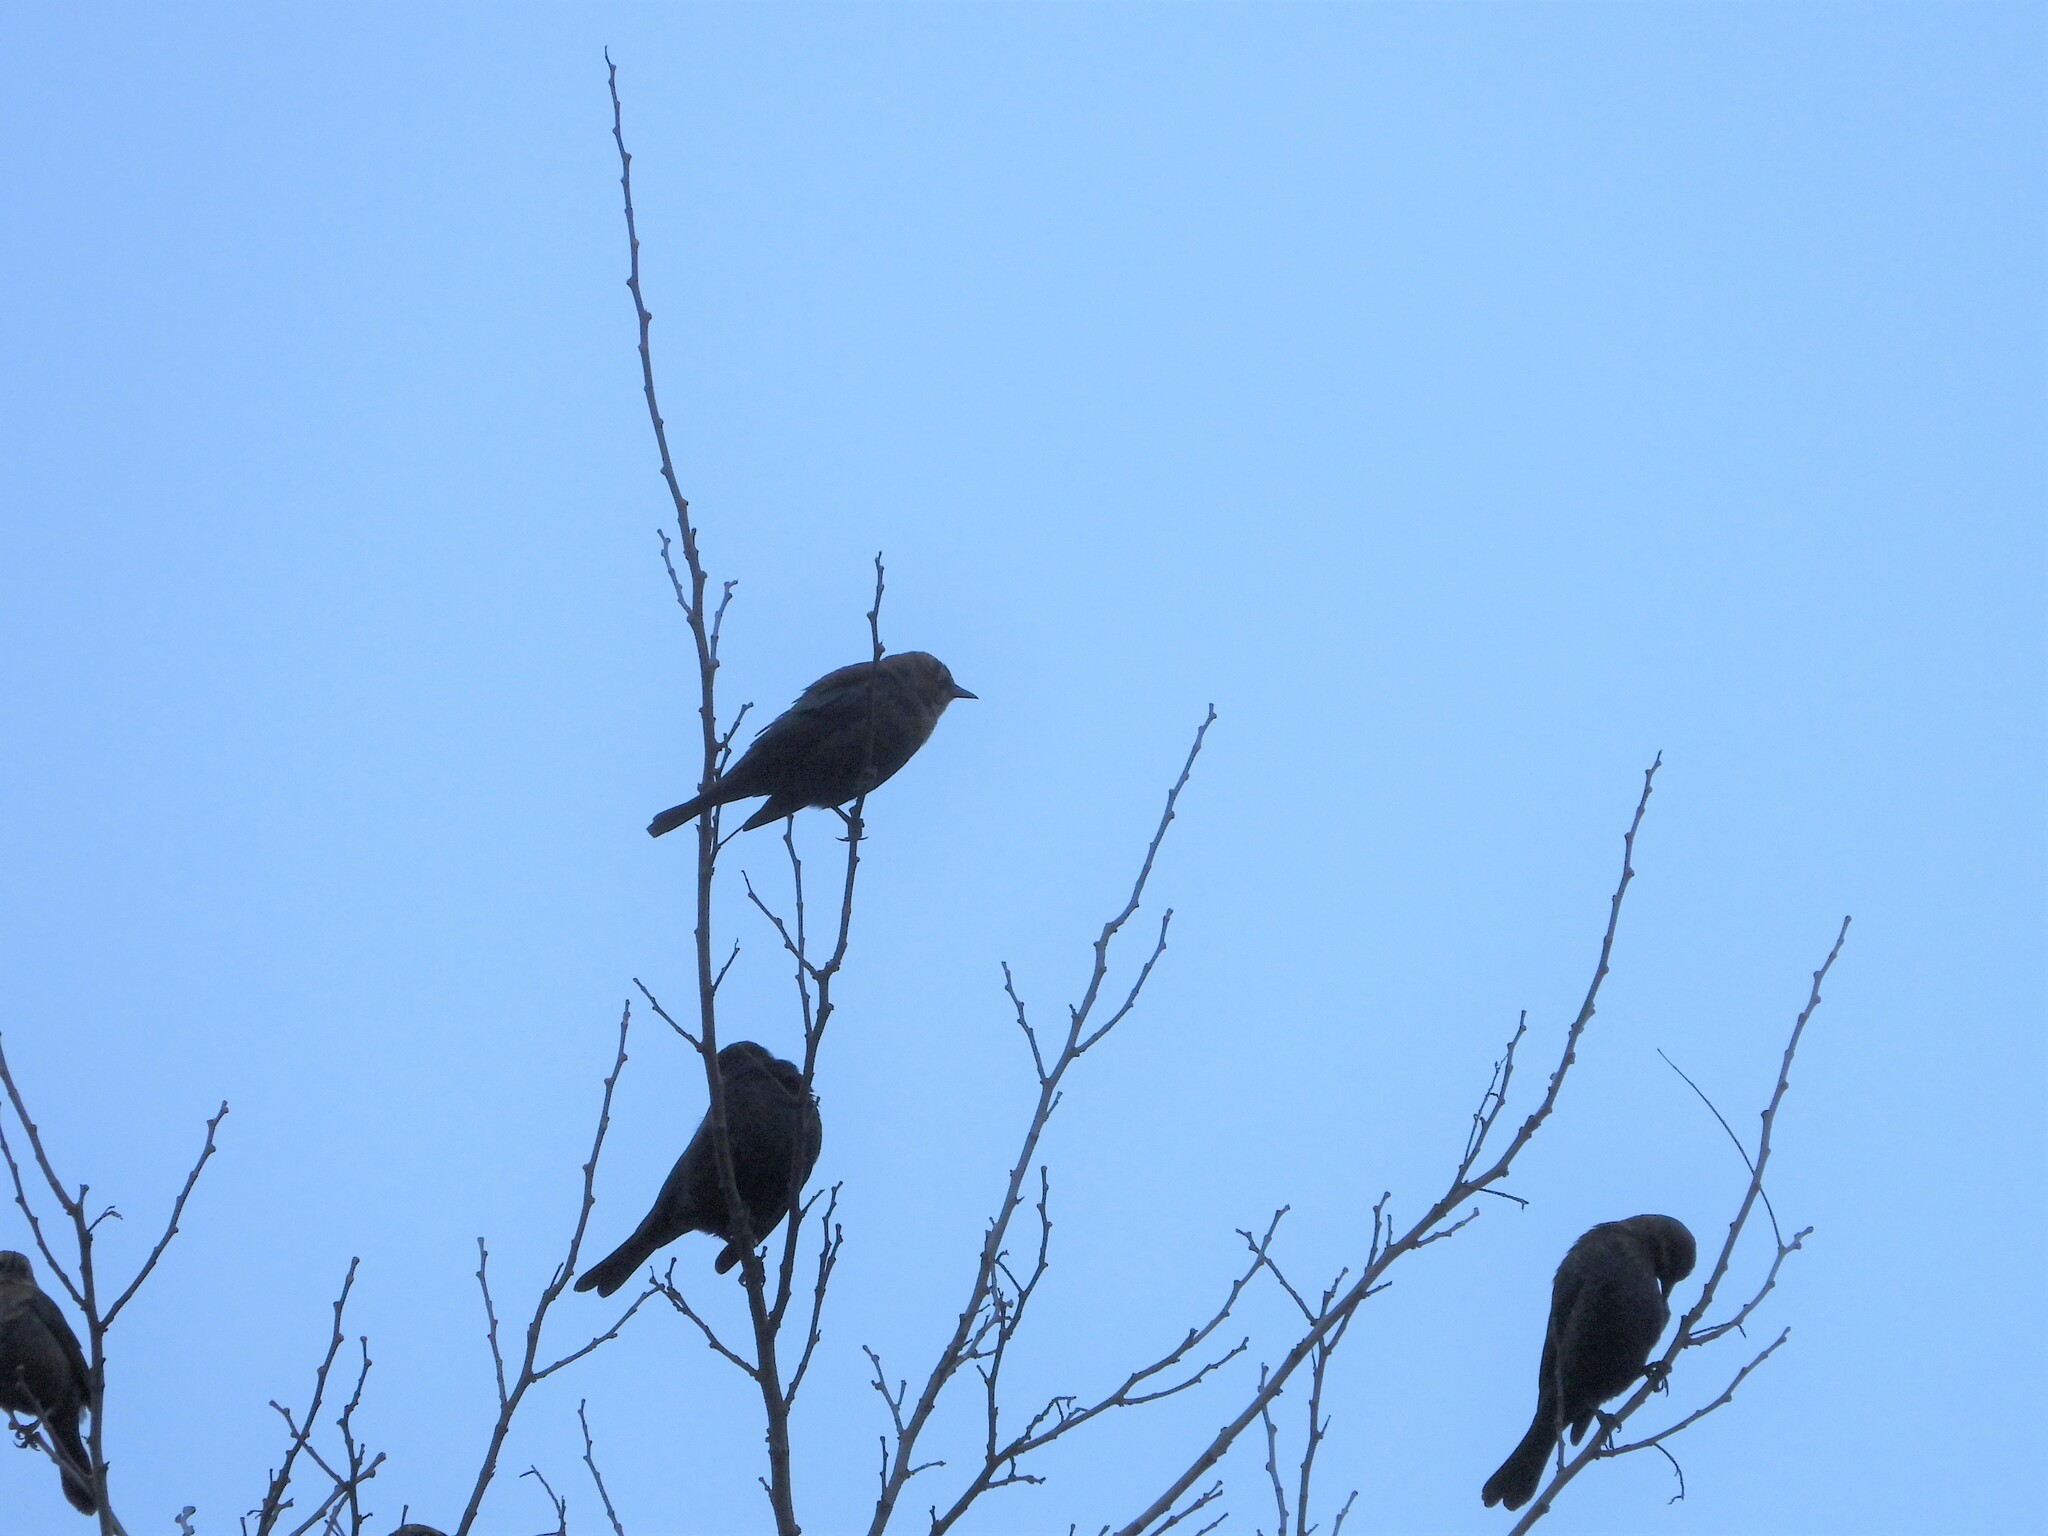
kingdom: Animalia
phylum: Chordata
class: Aves
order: Passeriformes
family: Icteridae
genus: Euphagus
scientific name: Euphagus carolinus
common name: Rusty blackbird
